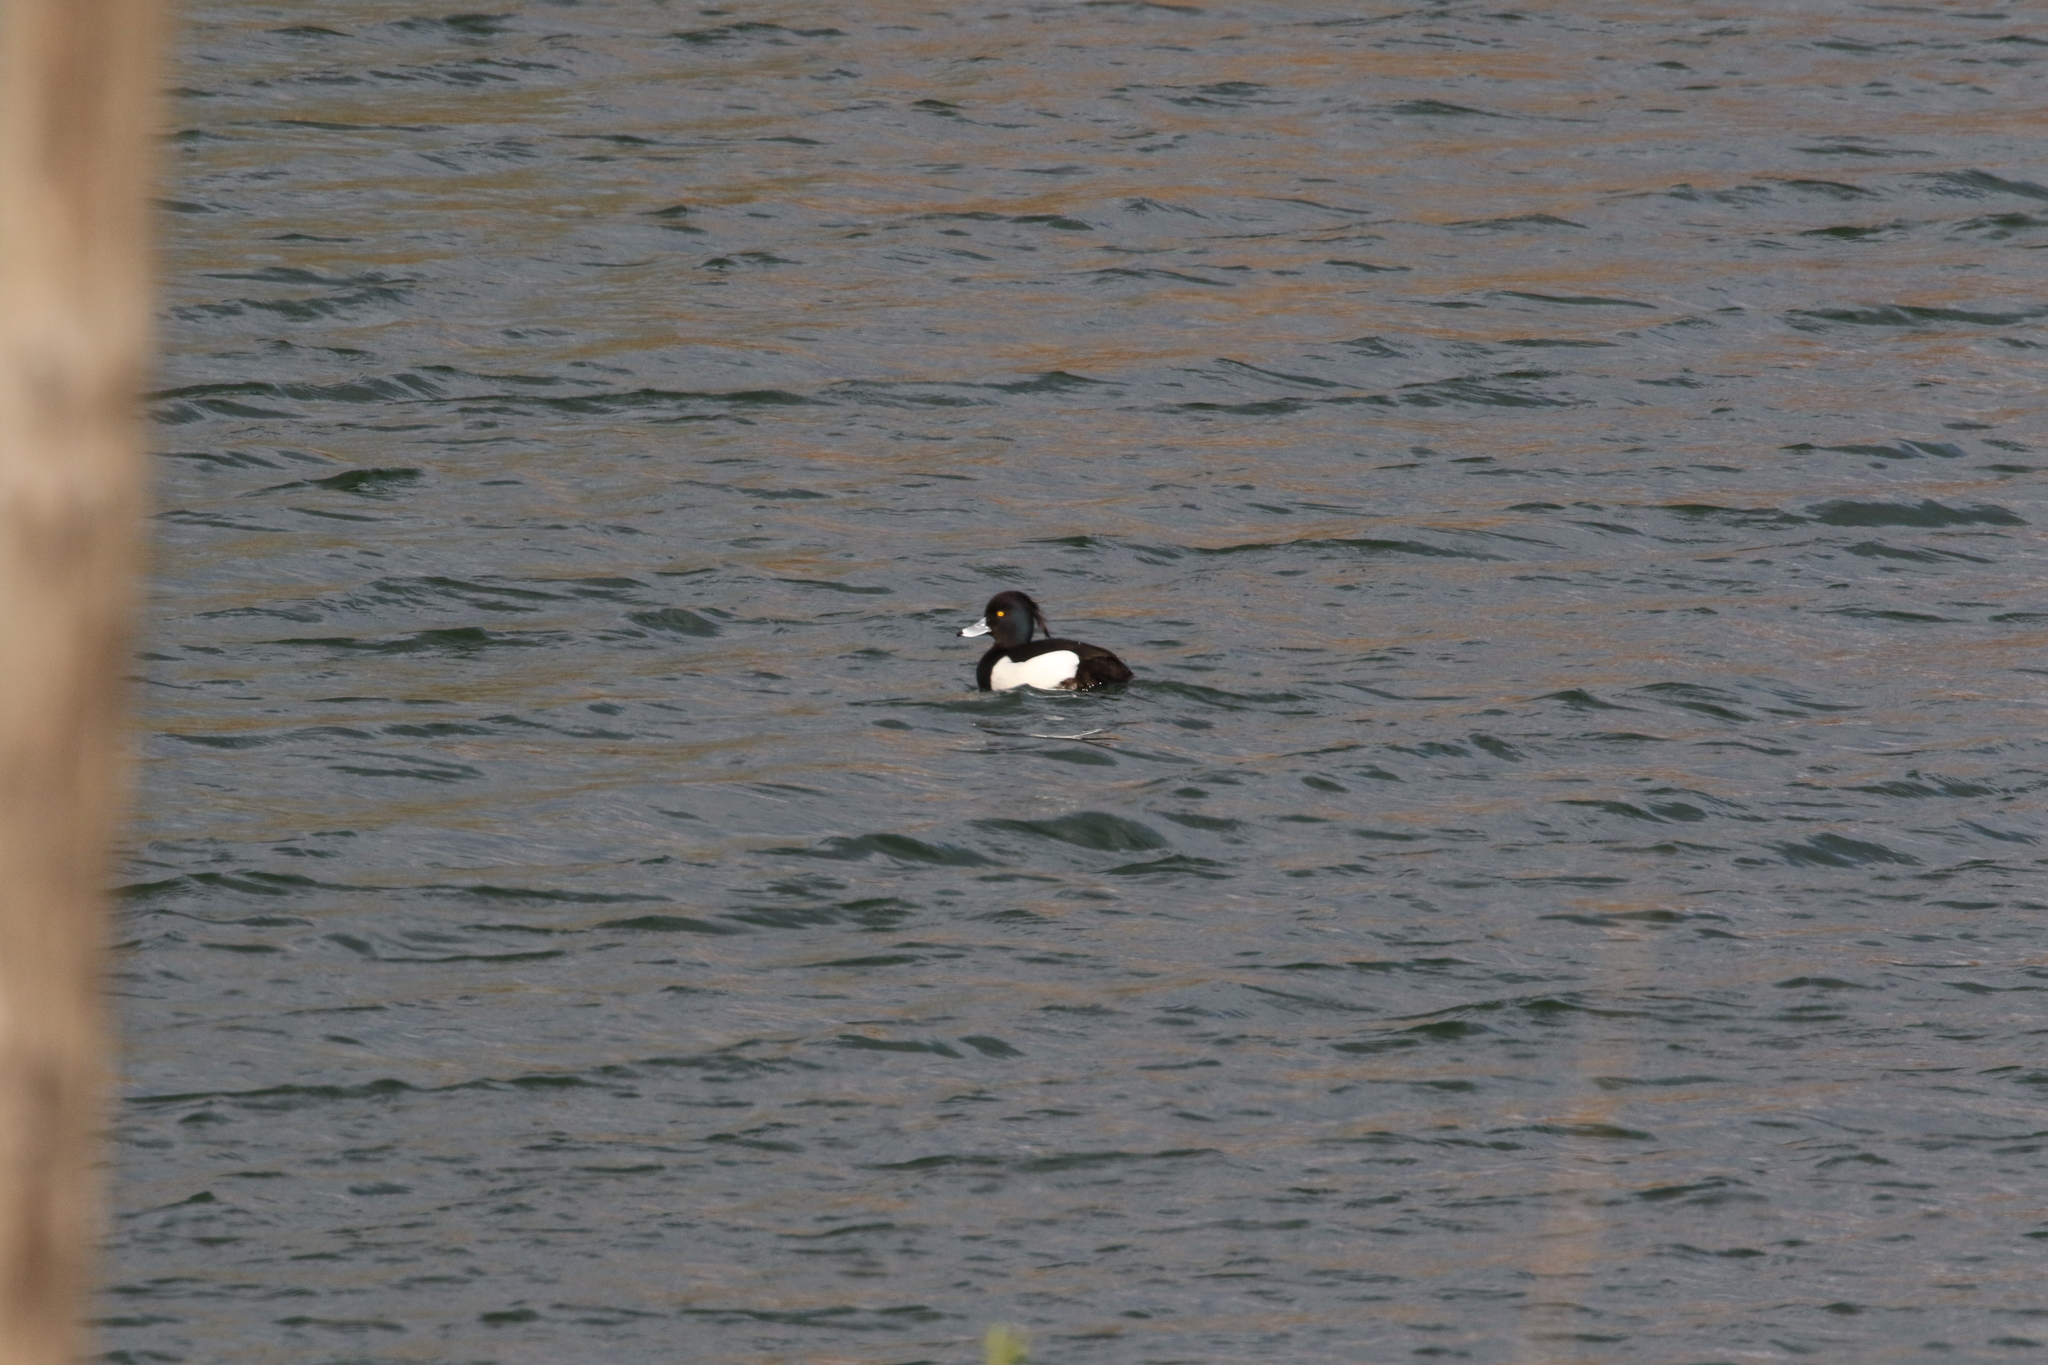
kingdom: Animalia
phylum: Chordata
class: Aves
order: Anseriformes
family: Anatidae
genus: Aythya
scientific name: Aythya fuligula
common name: Tufted duck
